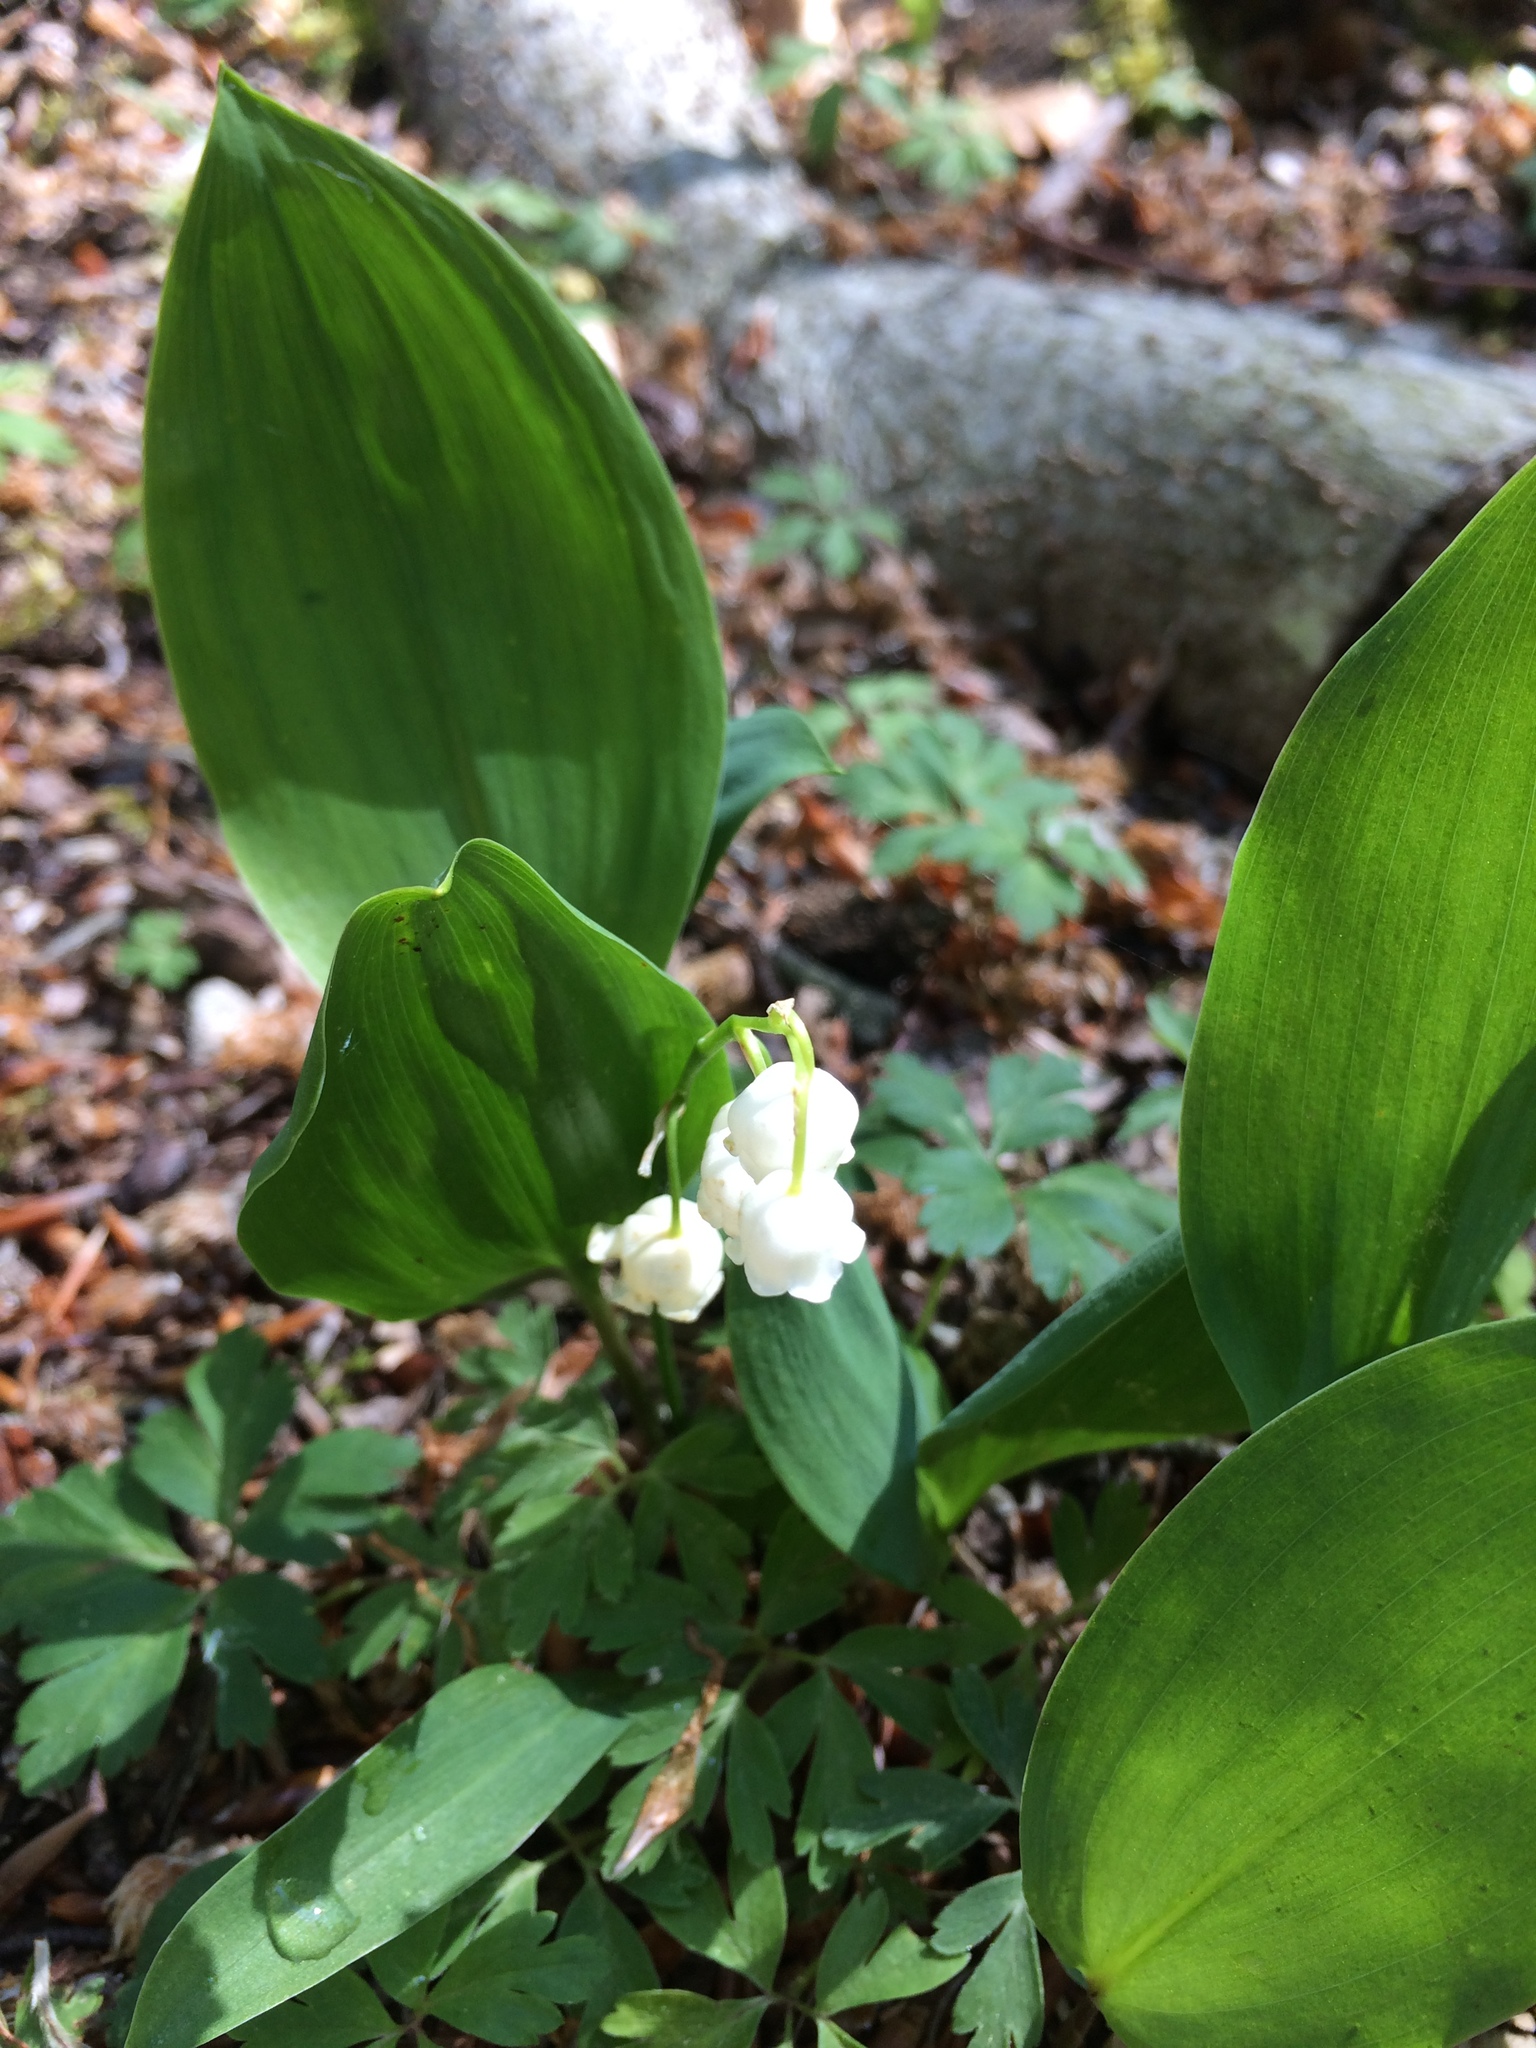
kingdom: Plantae
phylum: Tracheophyta
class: Liliopsida
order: Asparagales
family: Asparagaceae
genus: Convallaria
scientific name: Convallaria majalis
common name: Lily-of-the-valley
